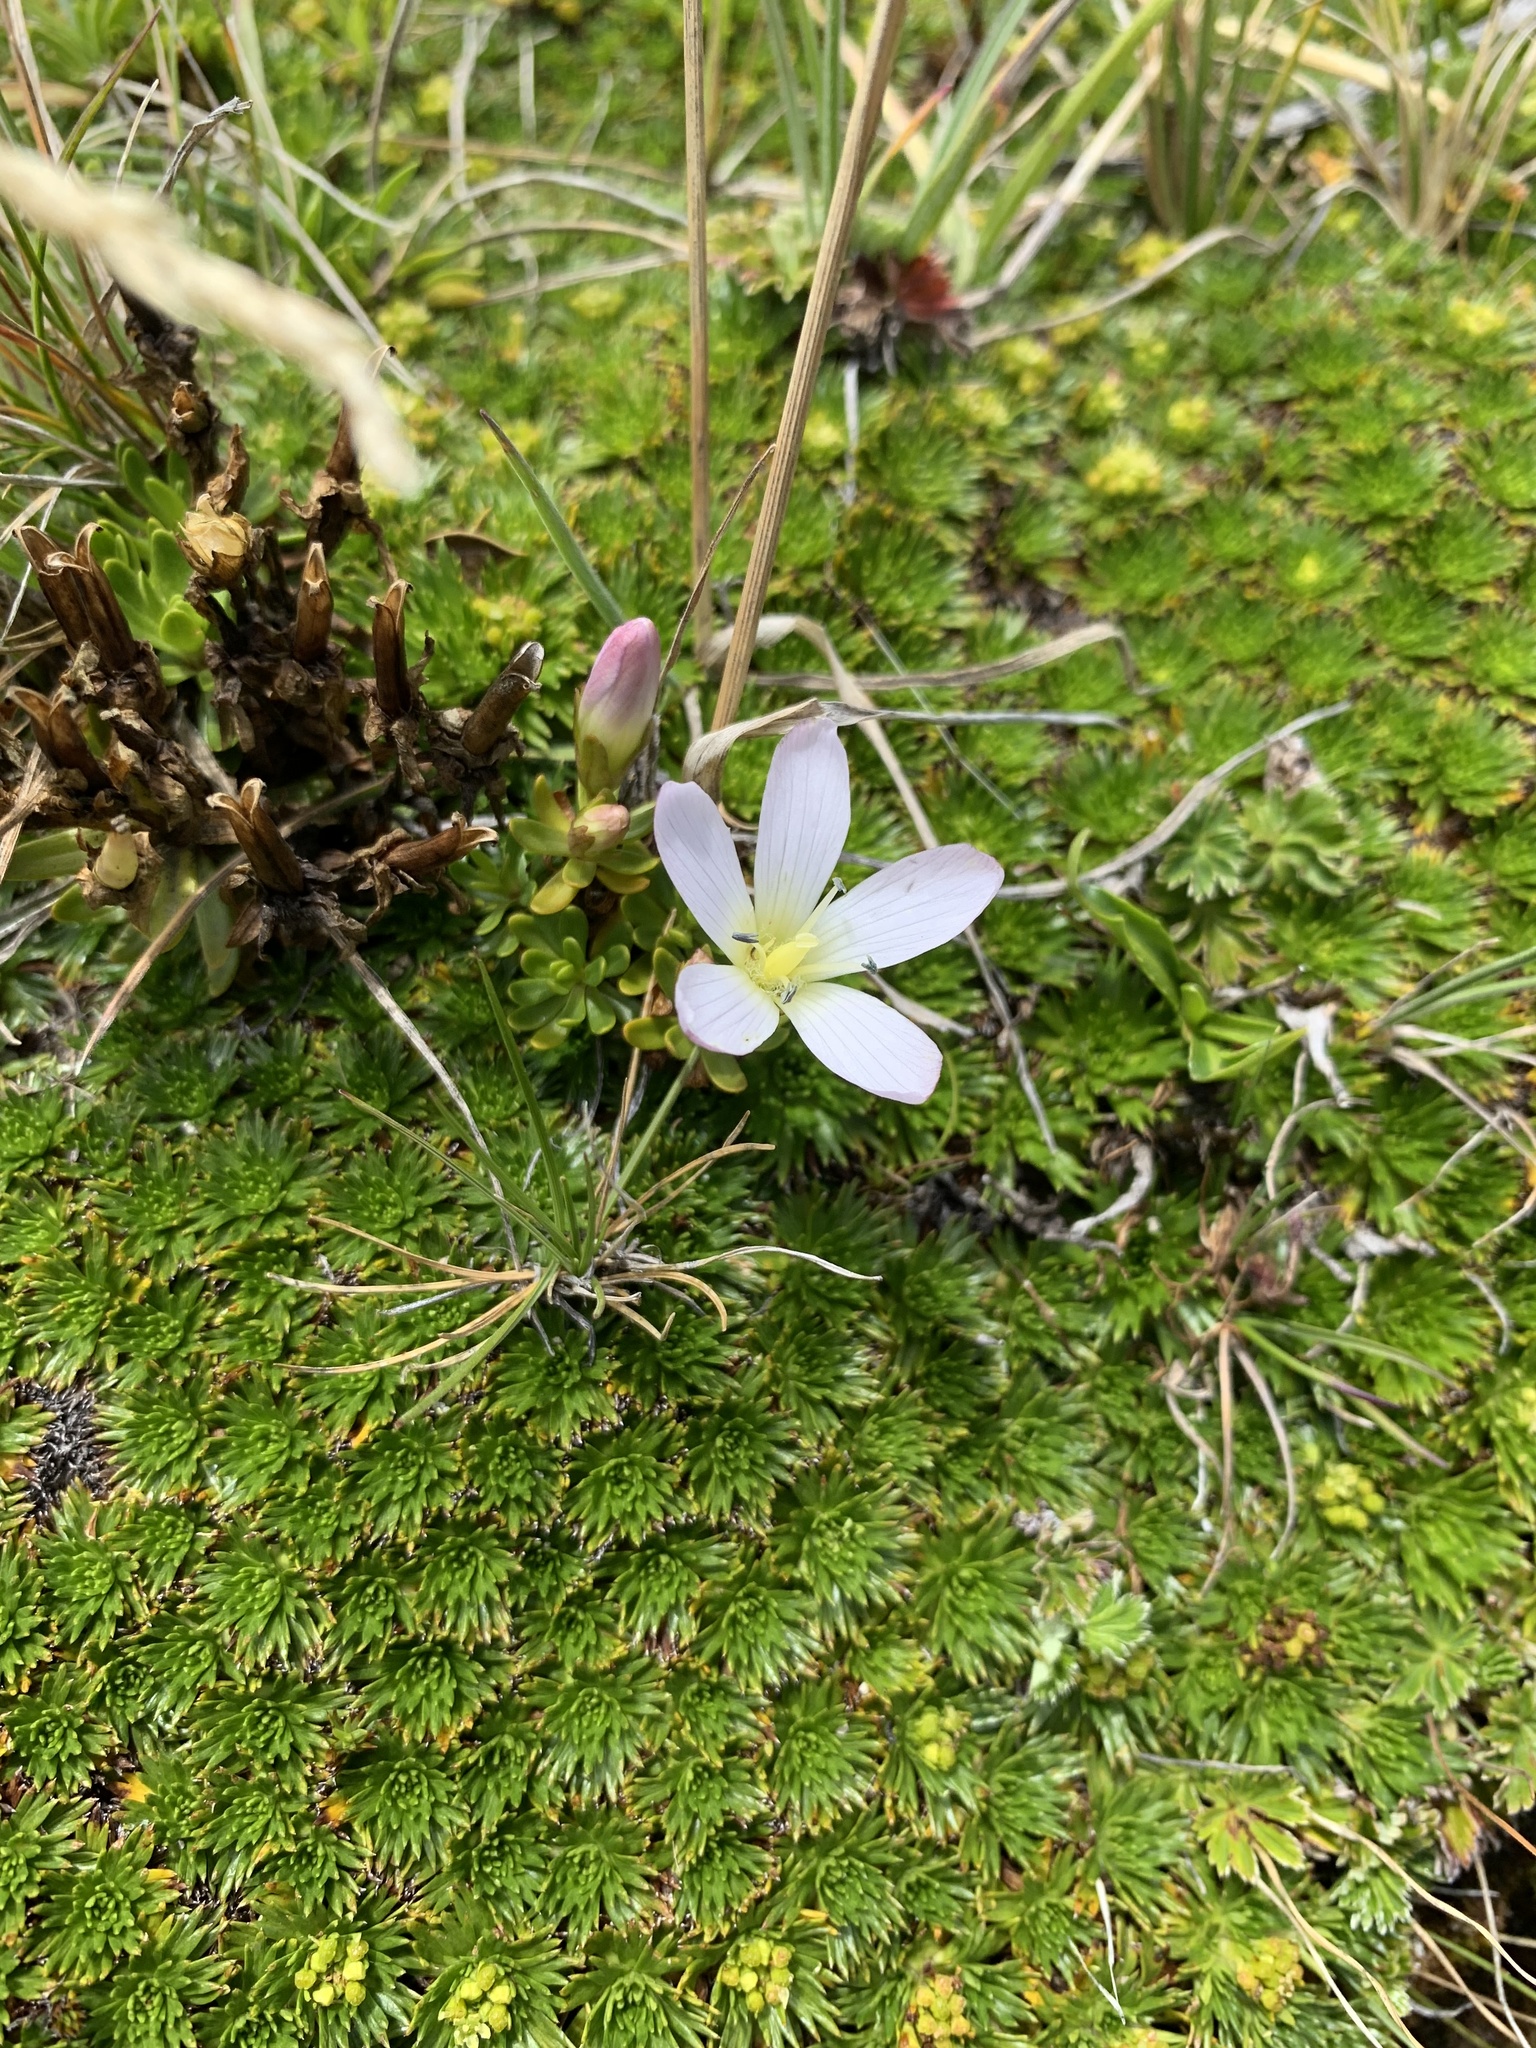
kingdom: Plantae
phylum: Tracheophyta
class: Magnoliopsida
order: Gentianales
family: Gentianaceae
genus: Gentianella
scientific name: Gentianella cerastioides
